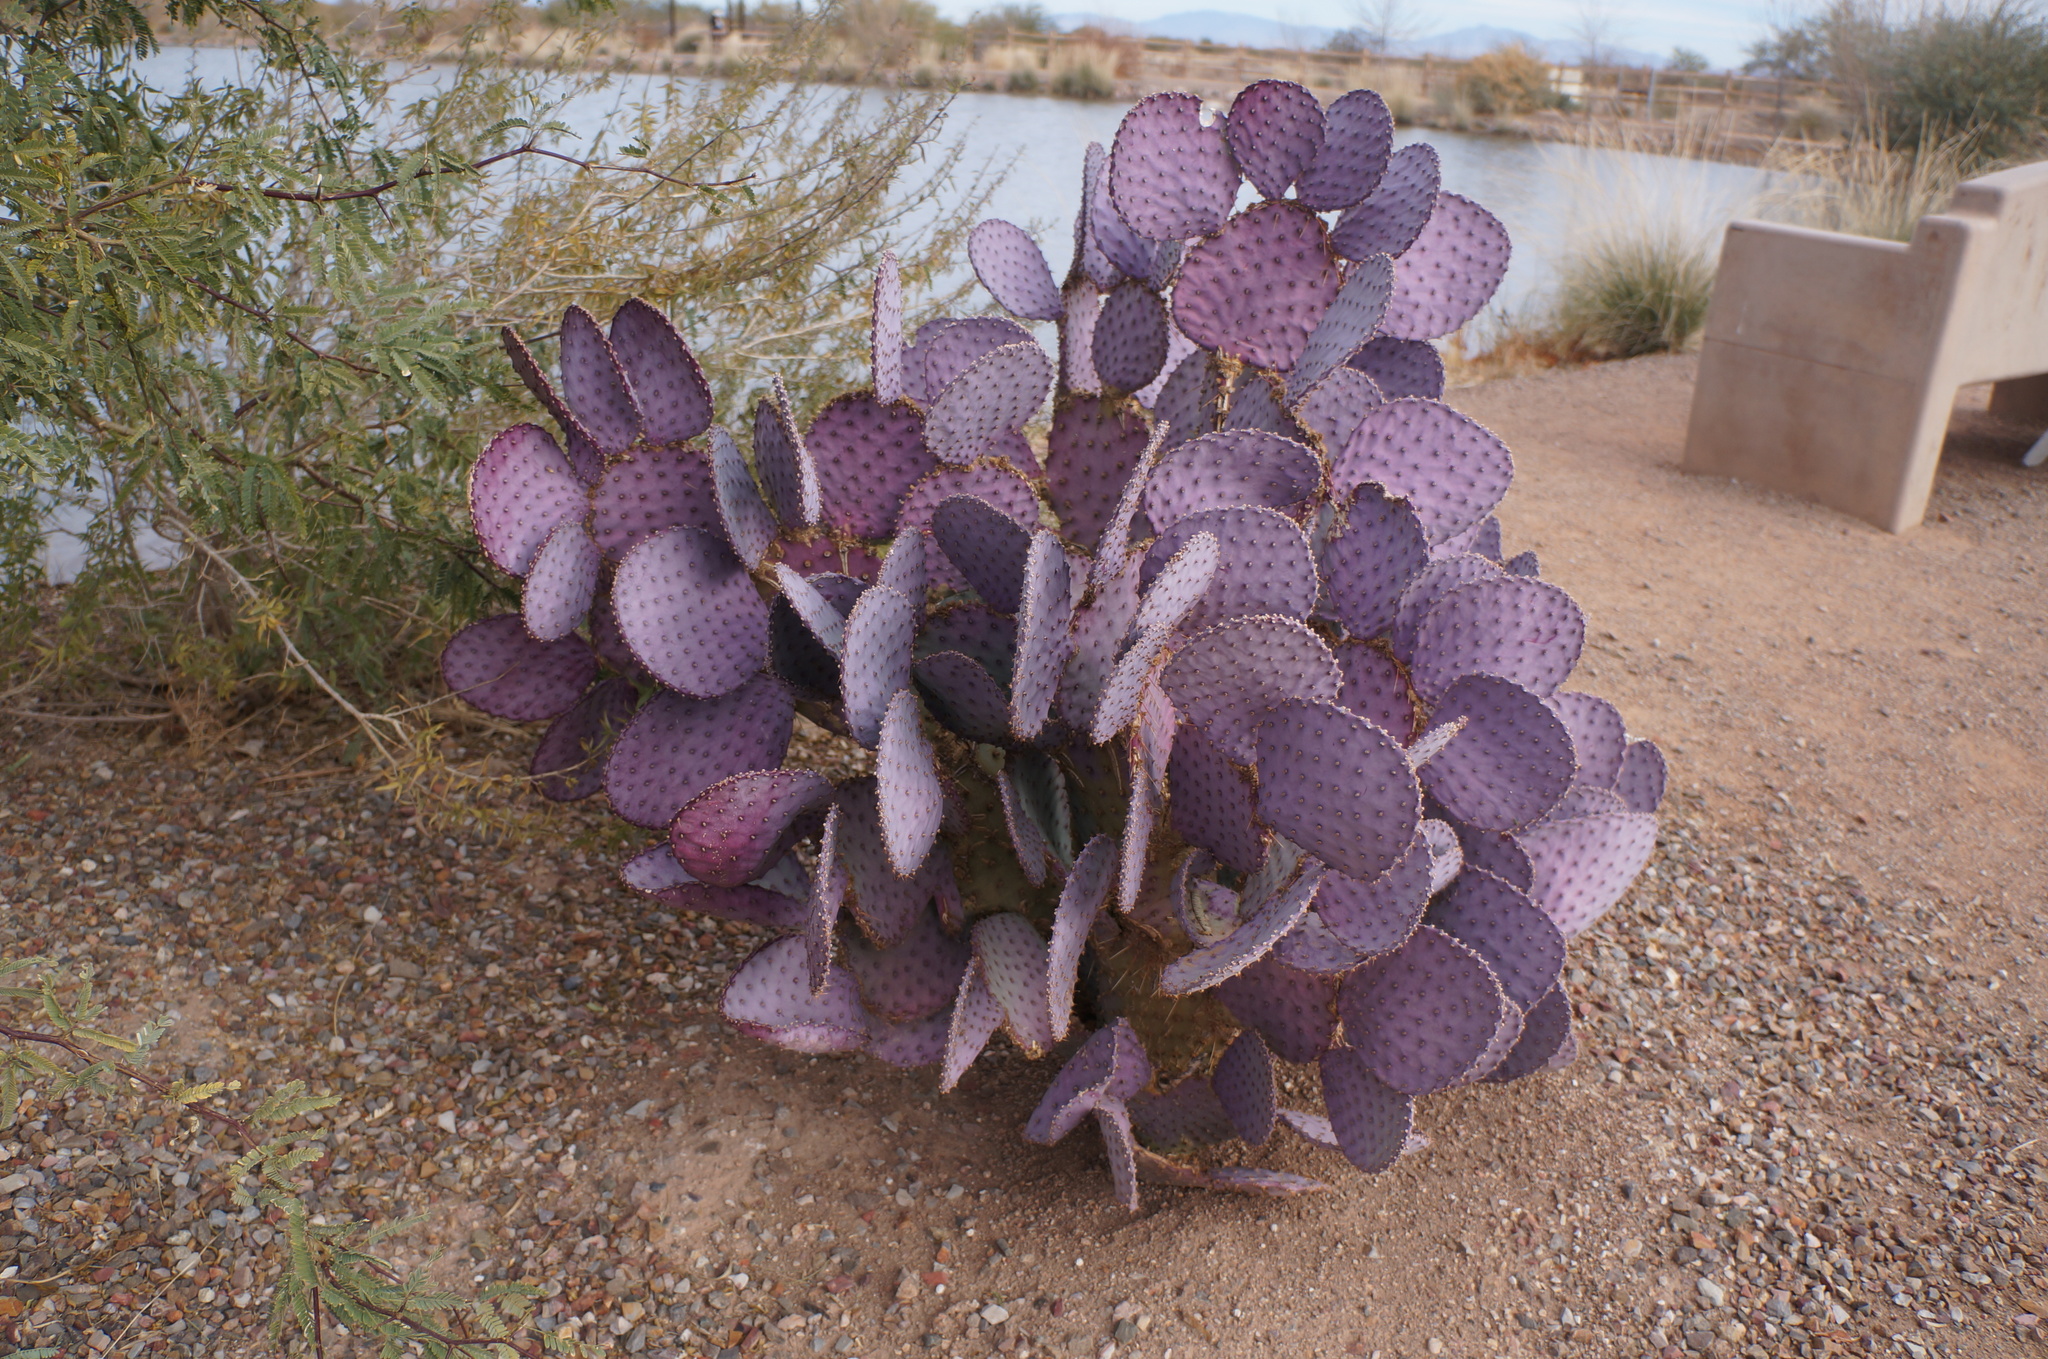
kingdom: Plantae
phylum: Tracheophyta
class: Magnoliopsida
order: Caryophyllales
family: Cactaceae
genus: Opuntia
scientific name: Opuntia gosseliniana
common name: Violet prickly-pear
